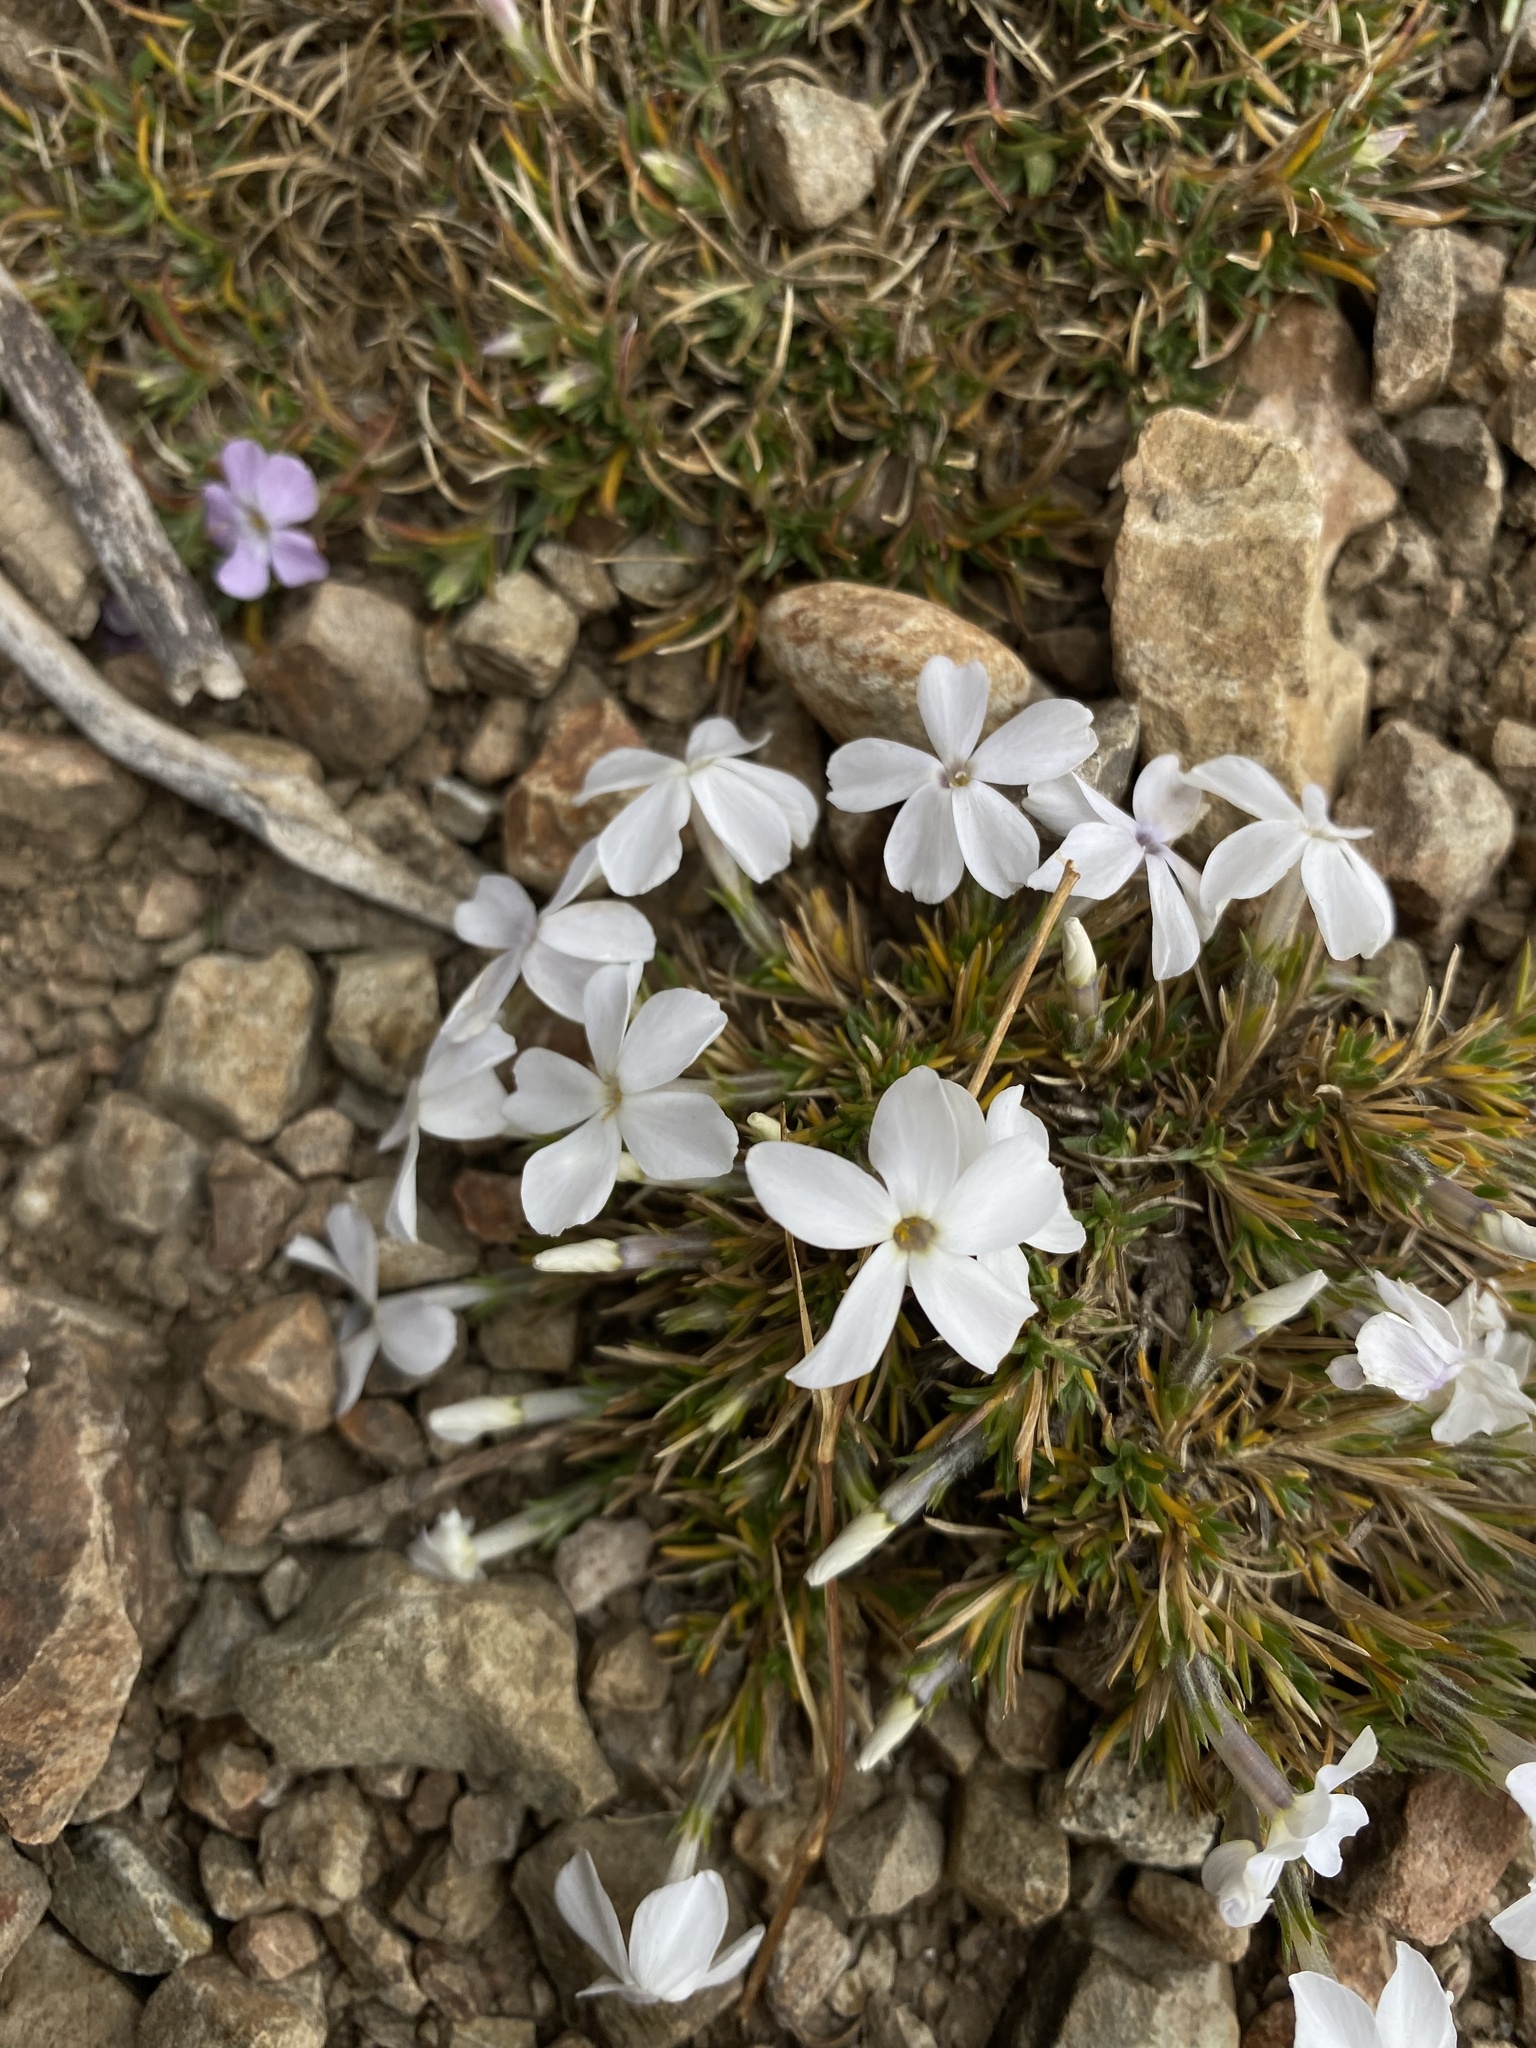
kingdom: Plantae
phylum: Tracheophyta
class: Magnoliopsida
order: Ericales
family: Polemoniaceae
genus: Phlox
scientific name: Phlox diffusa
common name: Mat phlox
